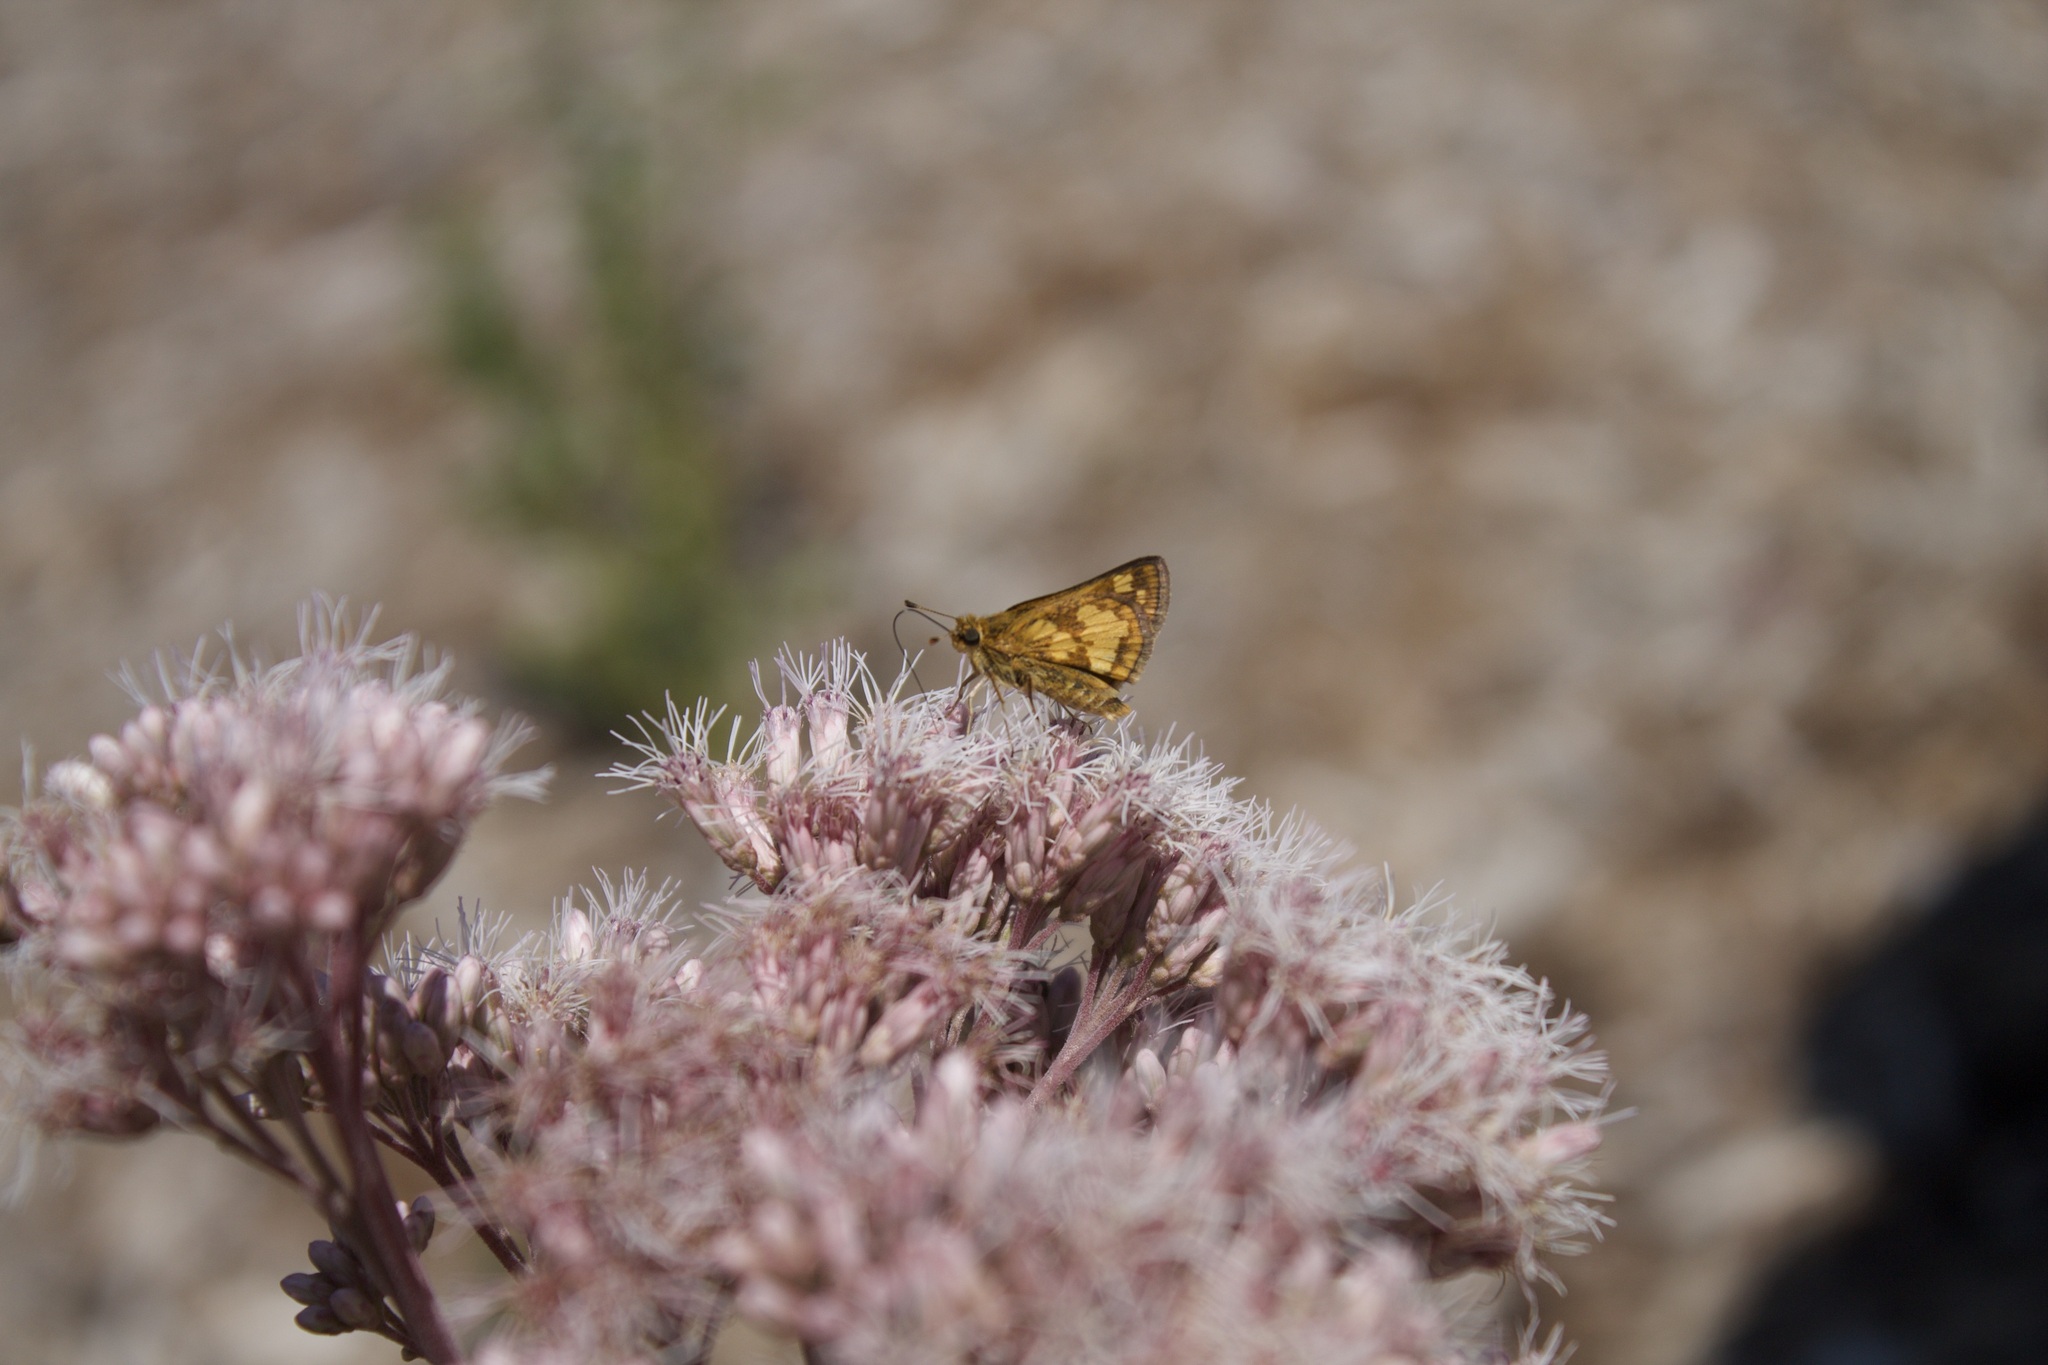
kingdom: Animalia
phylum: Arthropoda
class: Insecta
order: Lepidoptera
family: Hesperiidae
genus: Polites
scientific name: Polites coras
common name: Peck's skipper
